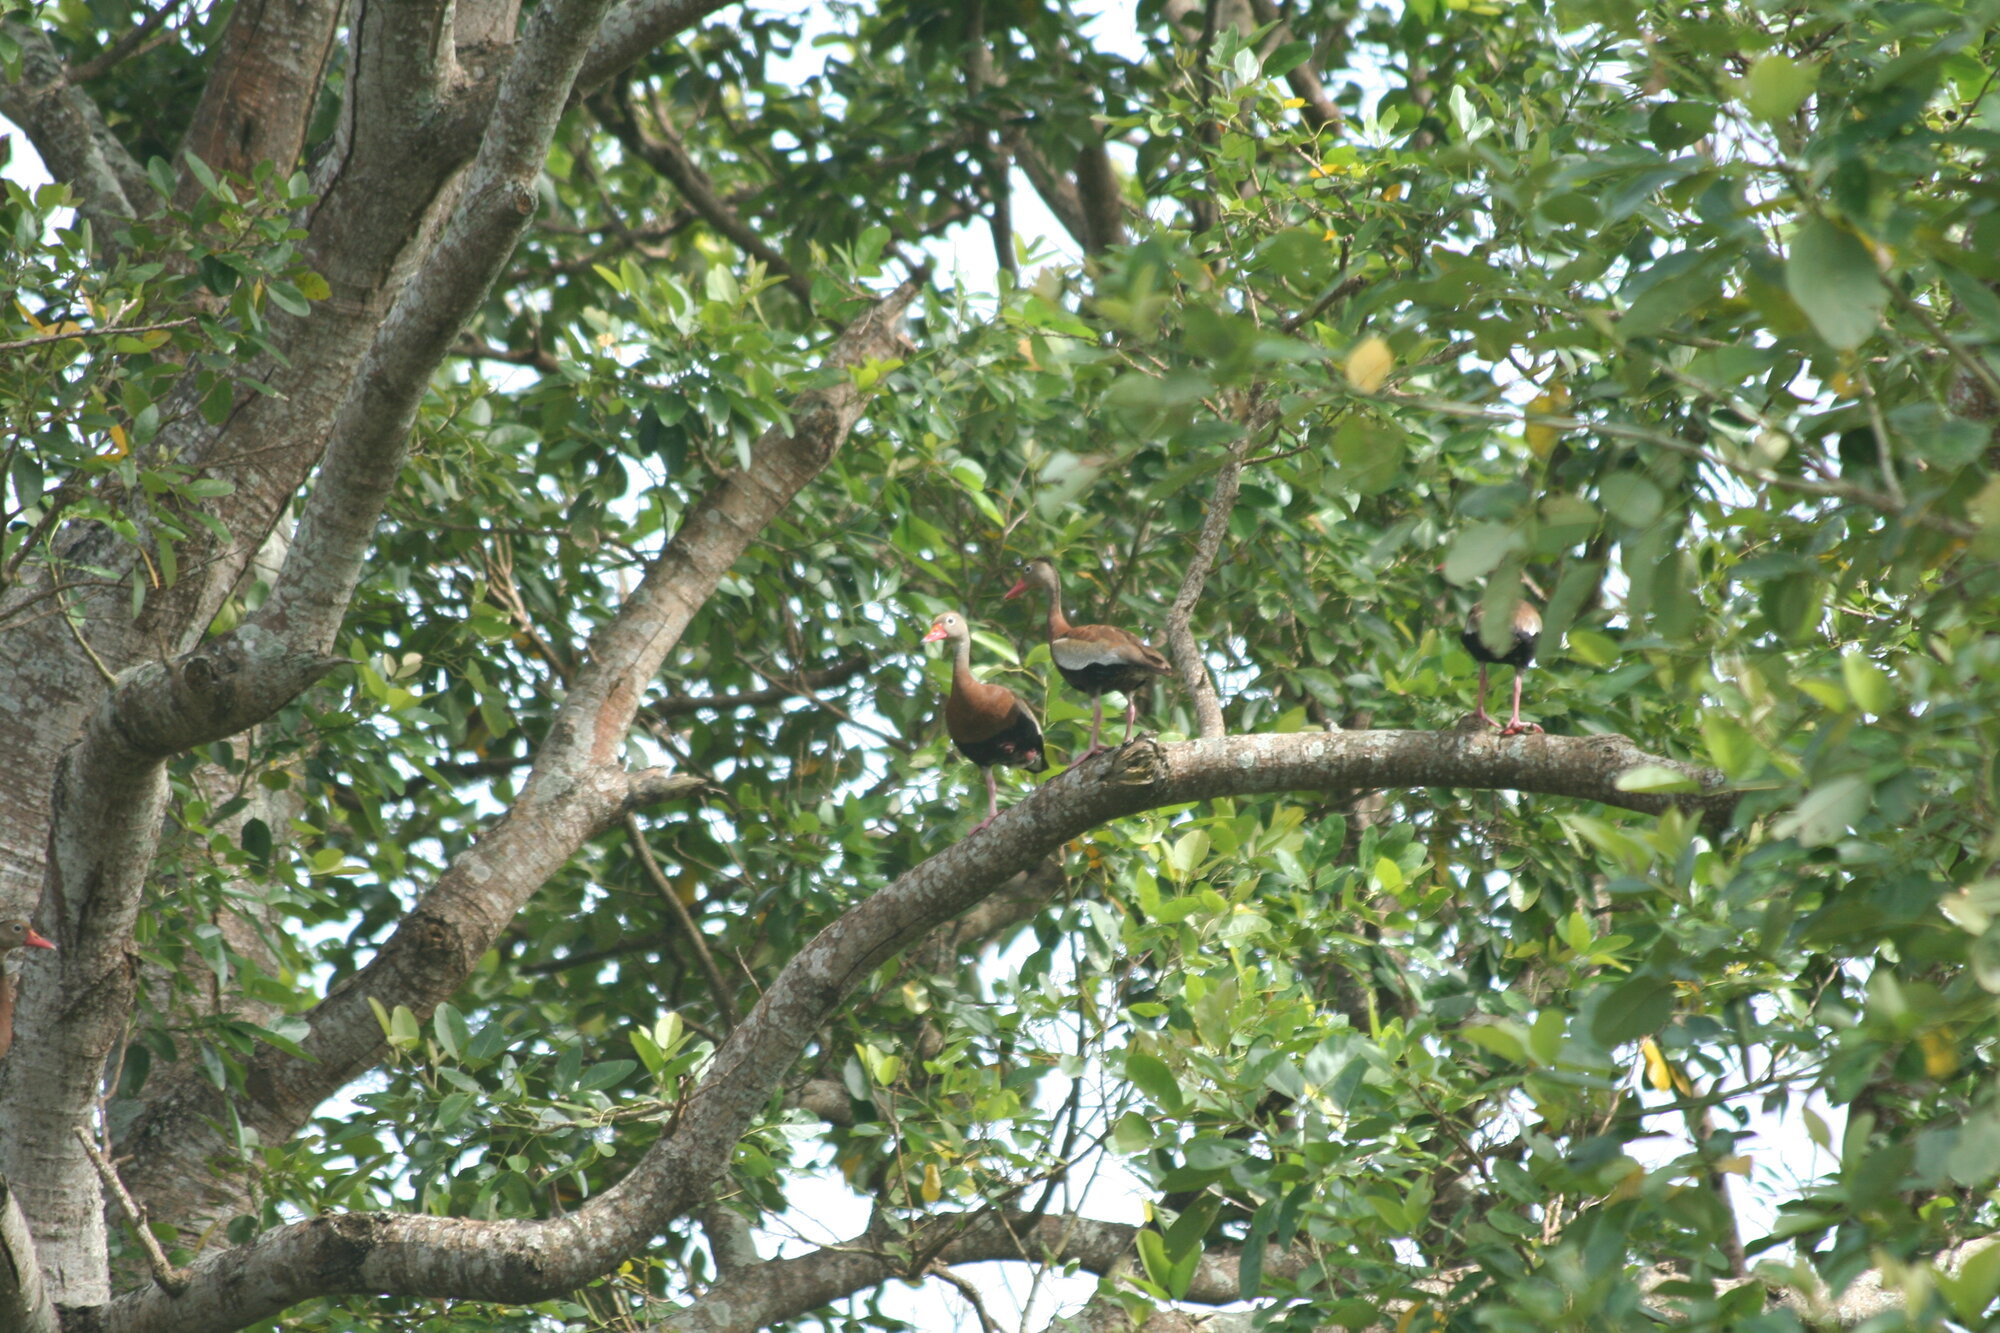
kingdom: Animalia
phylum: Chordata
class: Aves
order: Anseriformes
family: Anatidae
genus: Dendrocygna
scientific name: Dendrocygna autumnalis
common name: Black-bellied whistling duck
